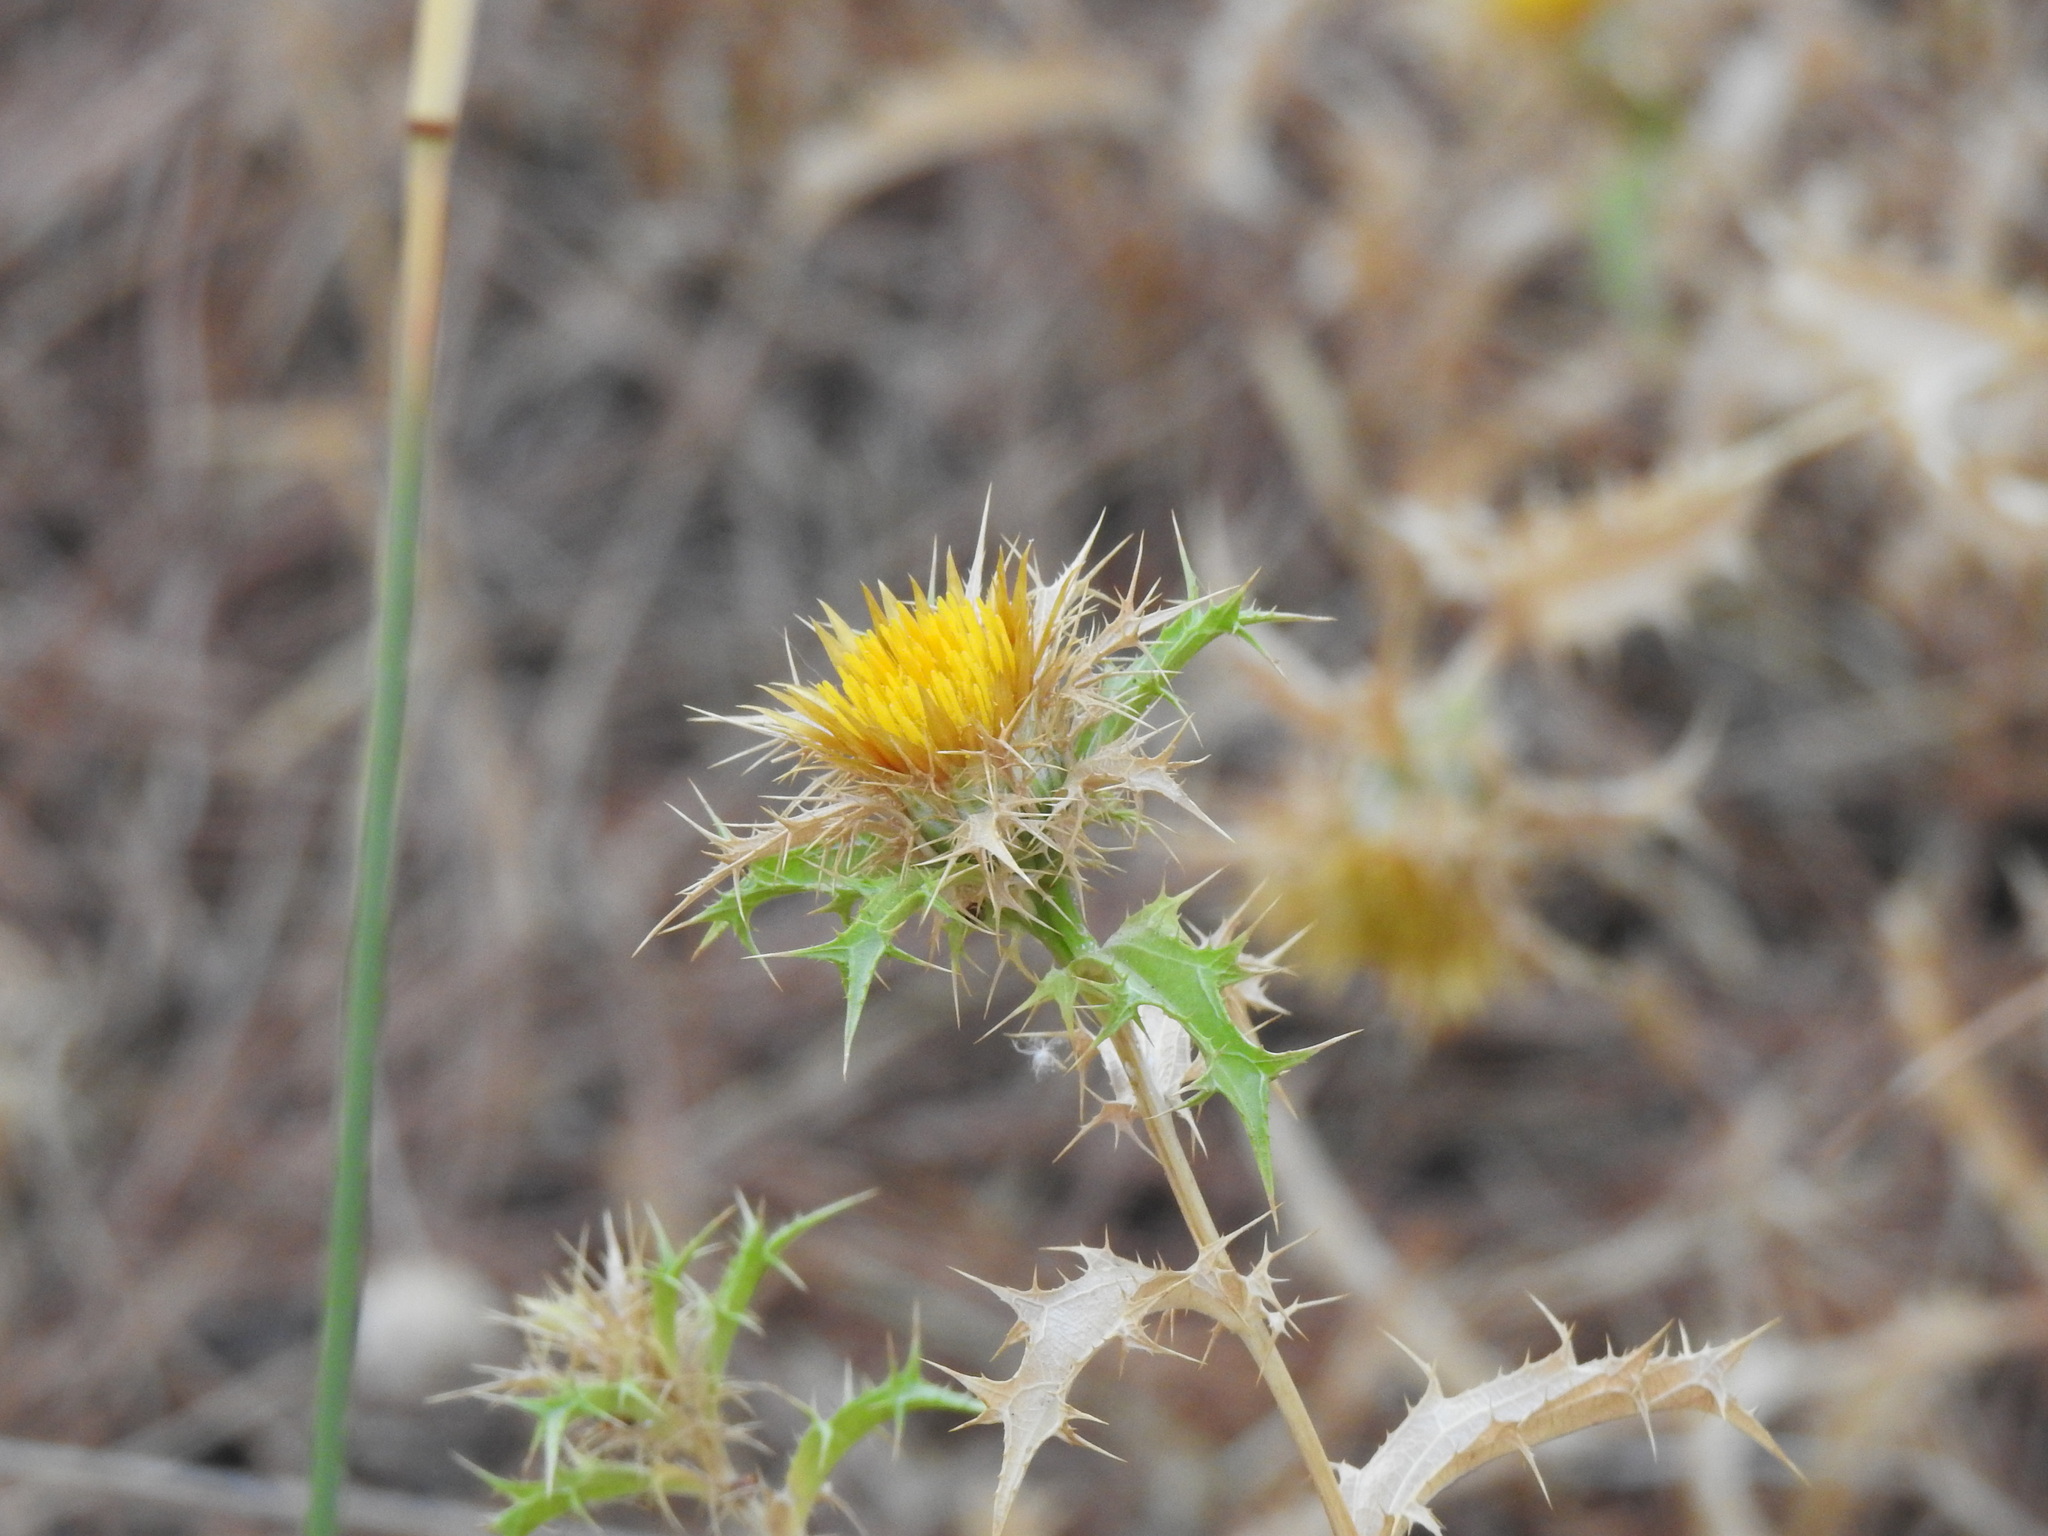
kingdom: Plantae
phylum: Tracheophyta
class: Magnoliopsida
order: Asterales
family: Asteraceae
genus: Carlina
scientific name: Carlina hispanica
